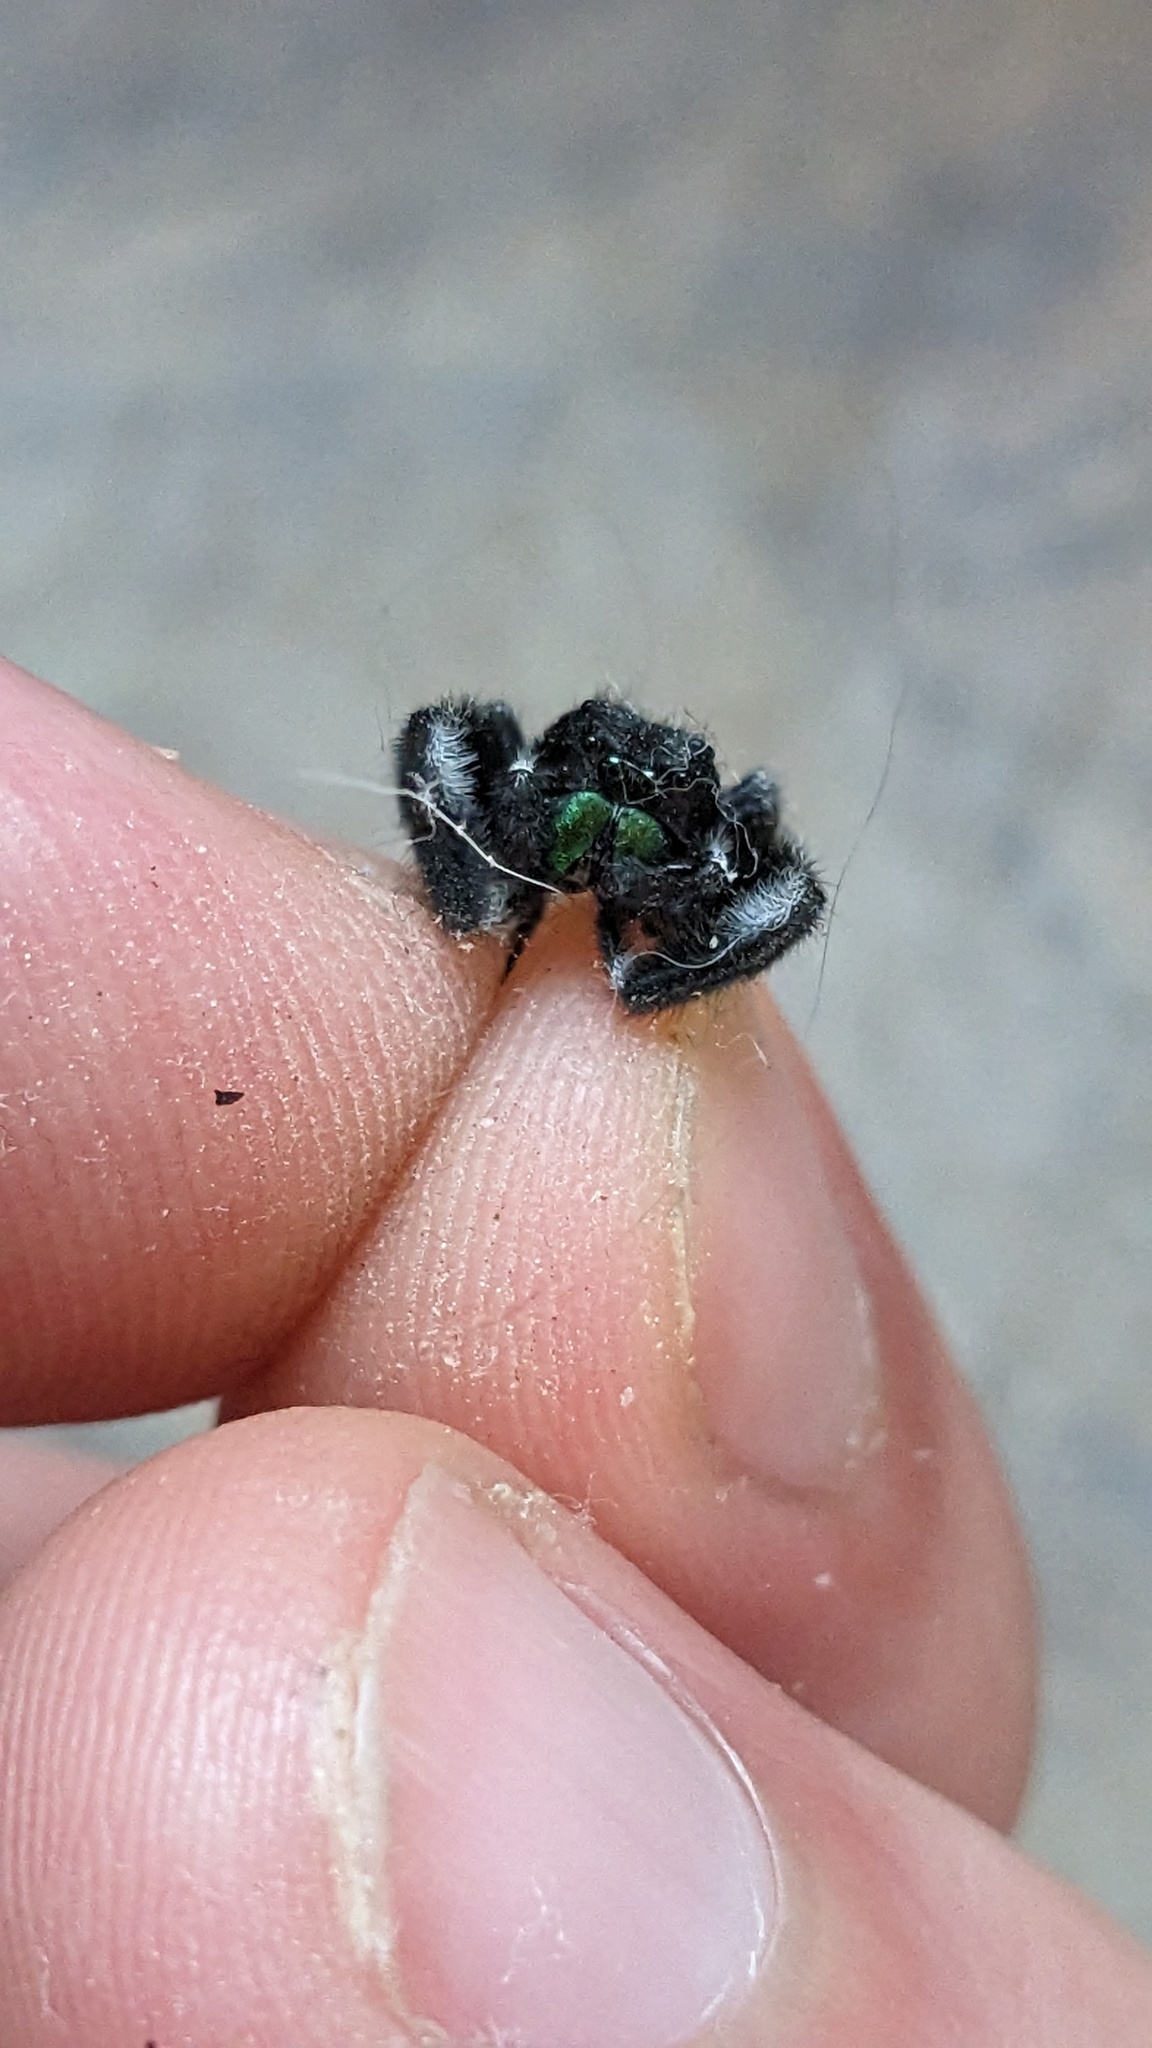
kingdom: Animalia
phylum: Arthropoda
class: Arachnida
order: Araneae
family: Salticidae
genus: Phidippus
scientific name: Phidippus audax
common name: Bold jumper
